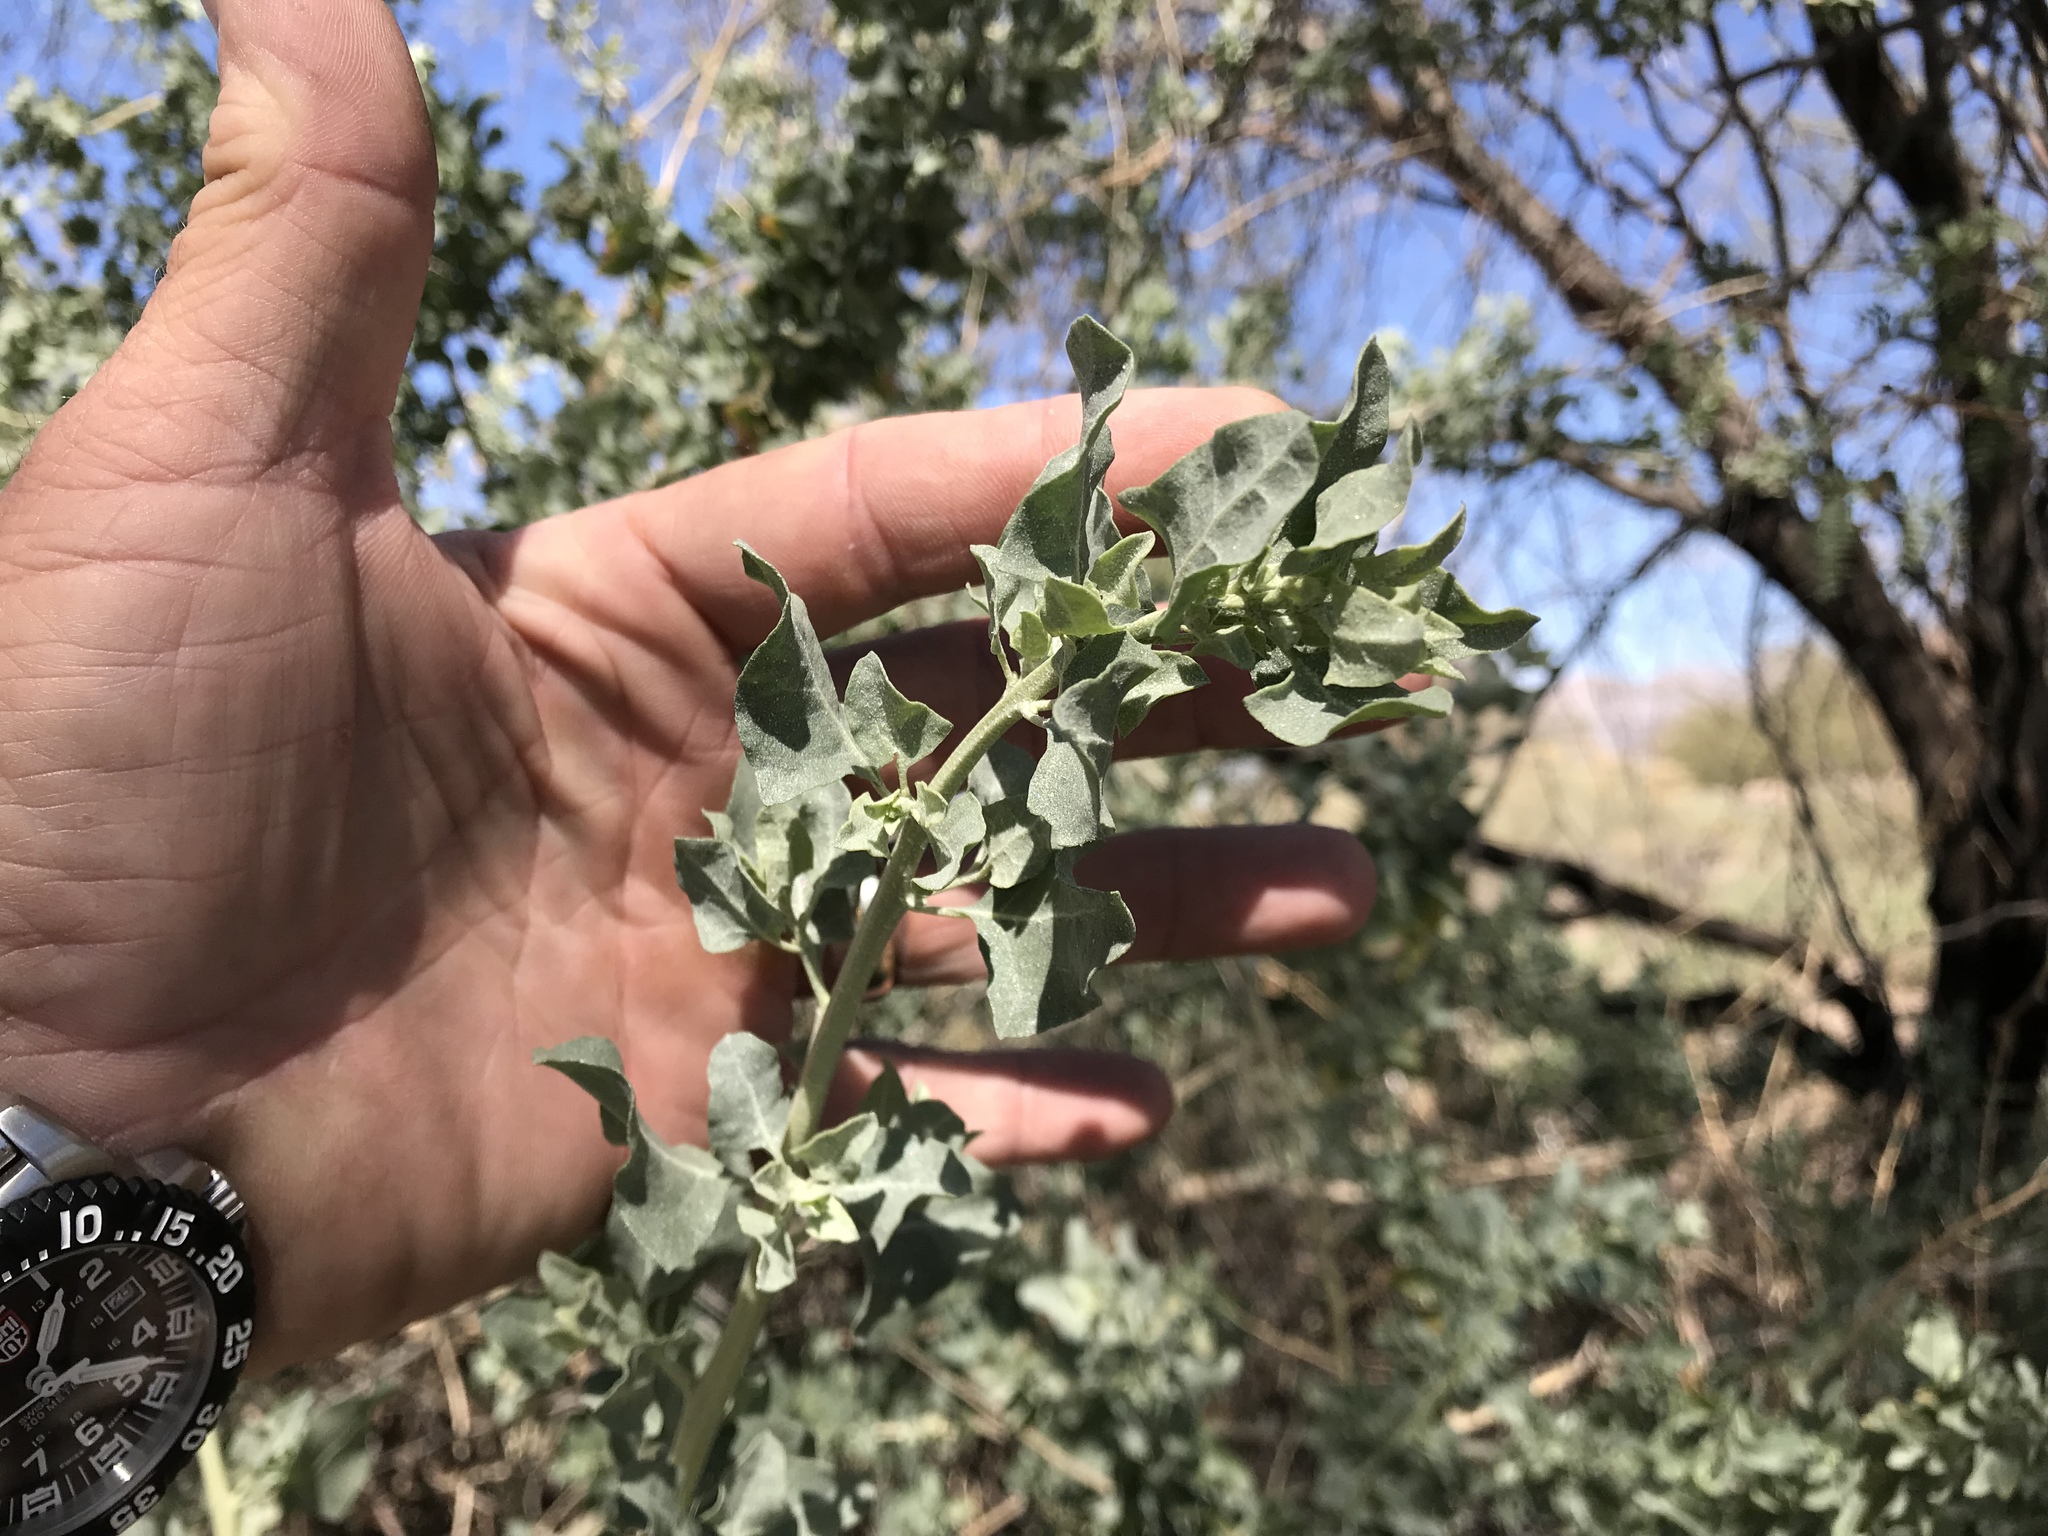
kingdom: Plantae
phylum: Tracheophyta
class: Magnoliopsida
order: Caryophyllales
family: Amaranthaceae
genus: Atriplex
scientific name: Atriplex lentiformis
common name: Big saltbush
